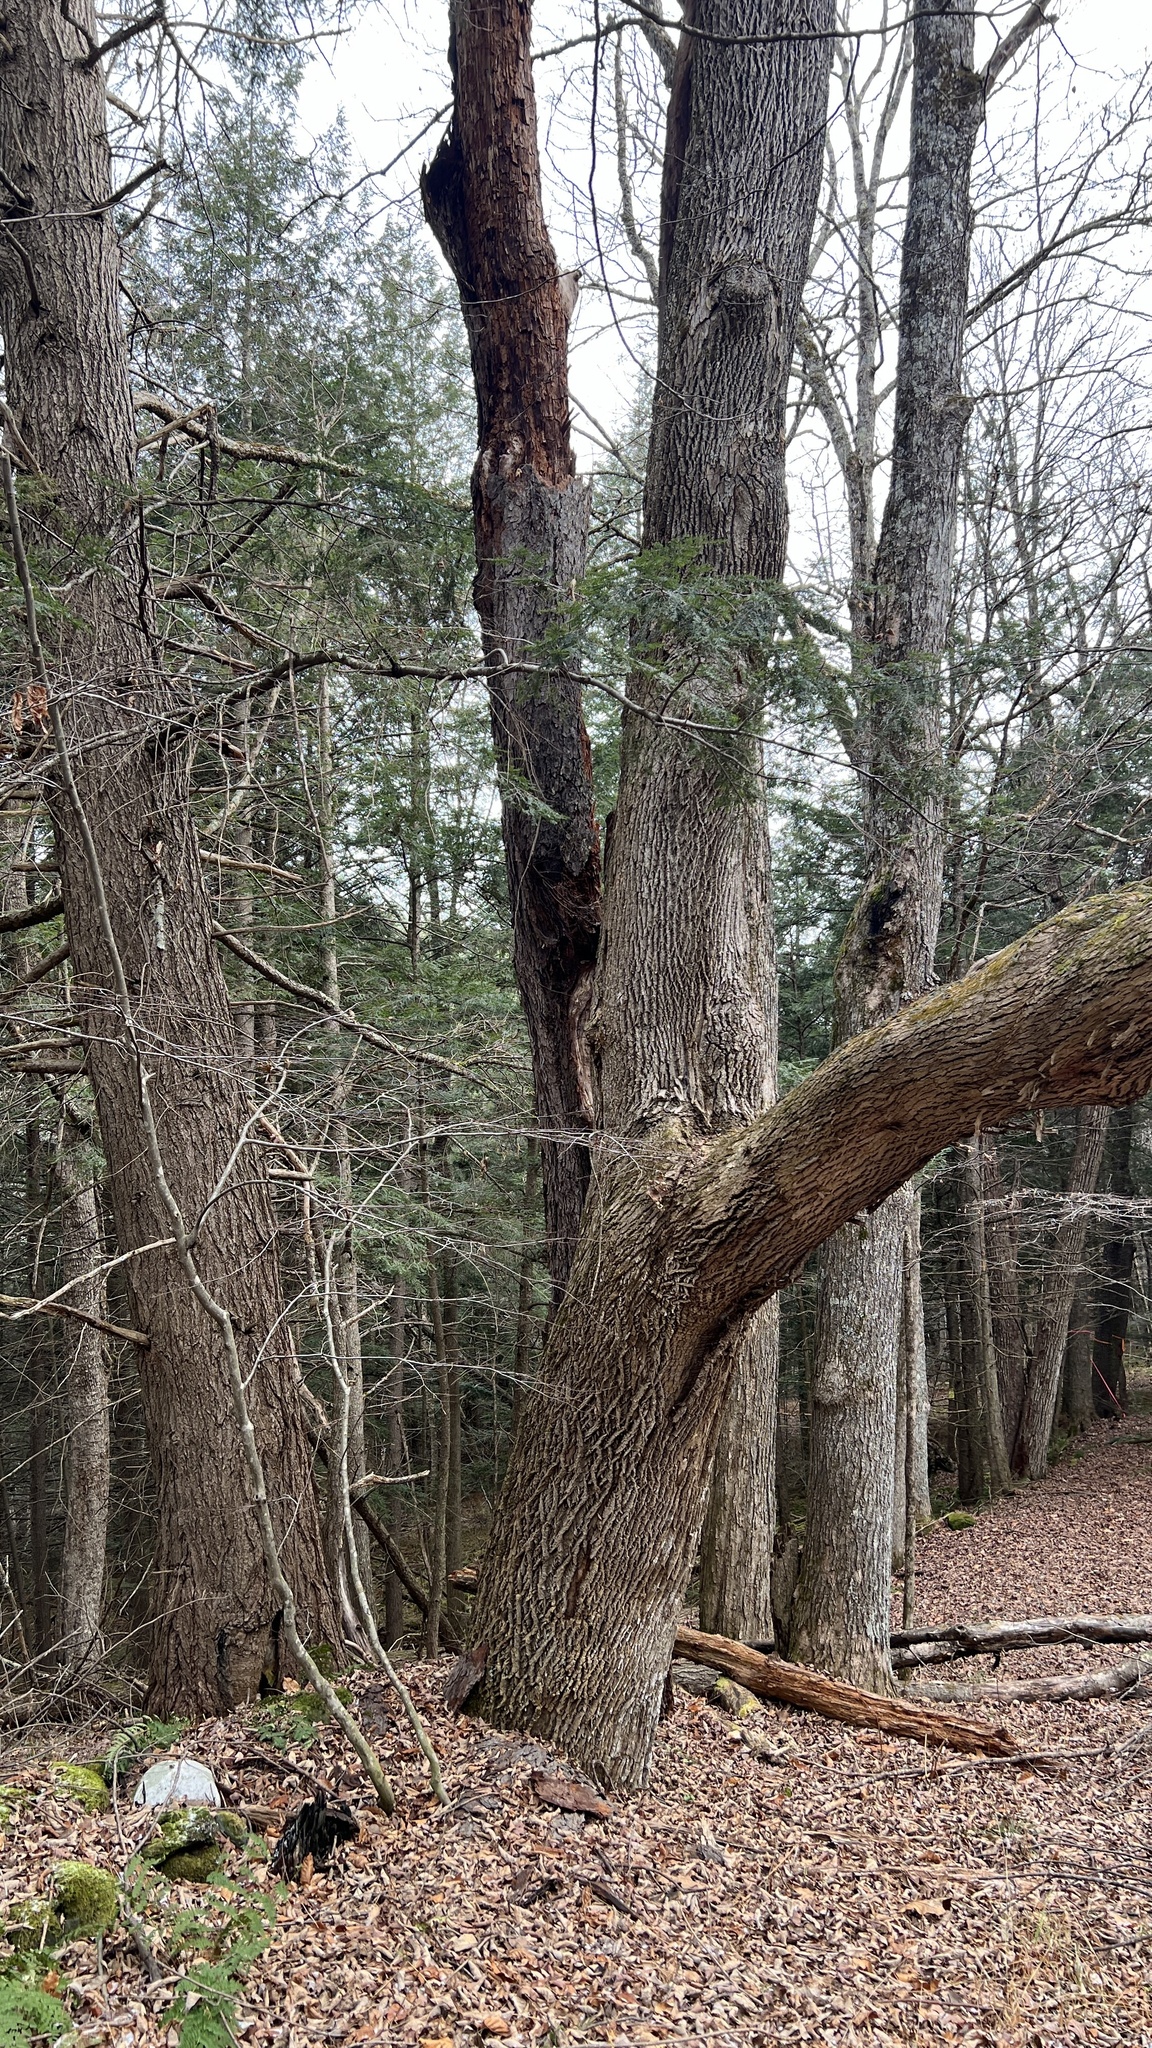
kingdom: Plantae
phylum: Tracheophyta
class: Magnoliopsida
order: Lamiales
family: Oleaceae
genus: Fraxinus
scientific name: Fraxinus americana
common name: White ash
